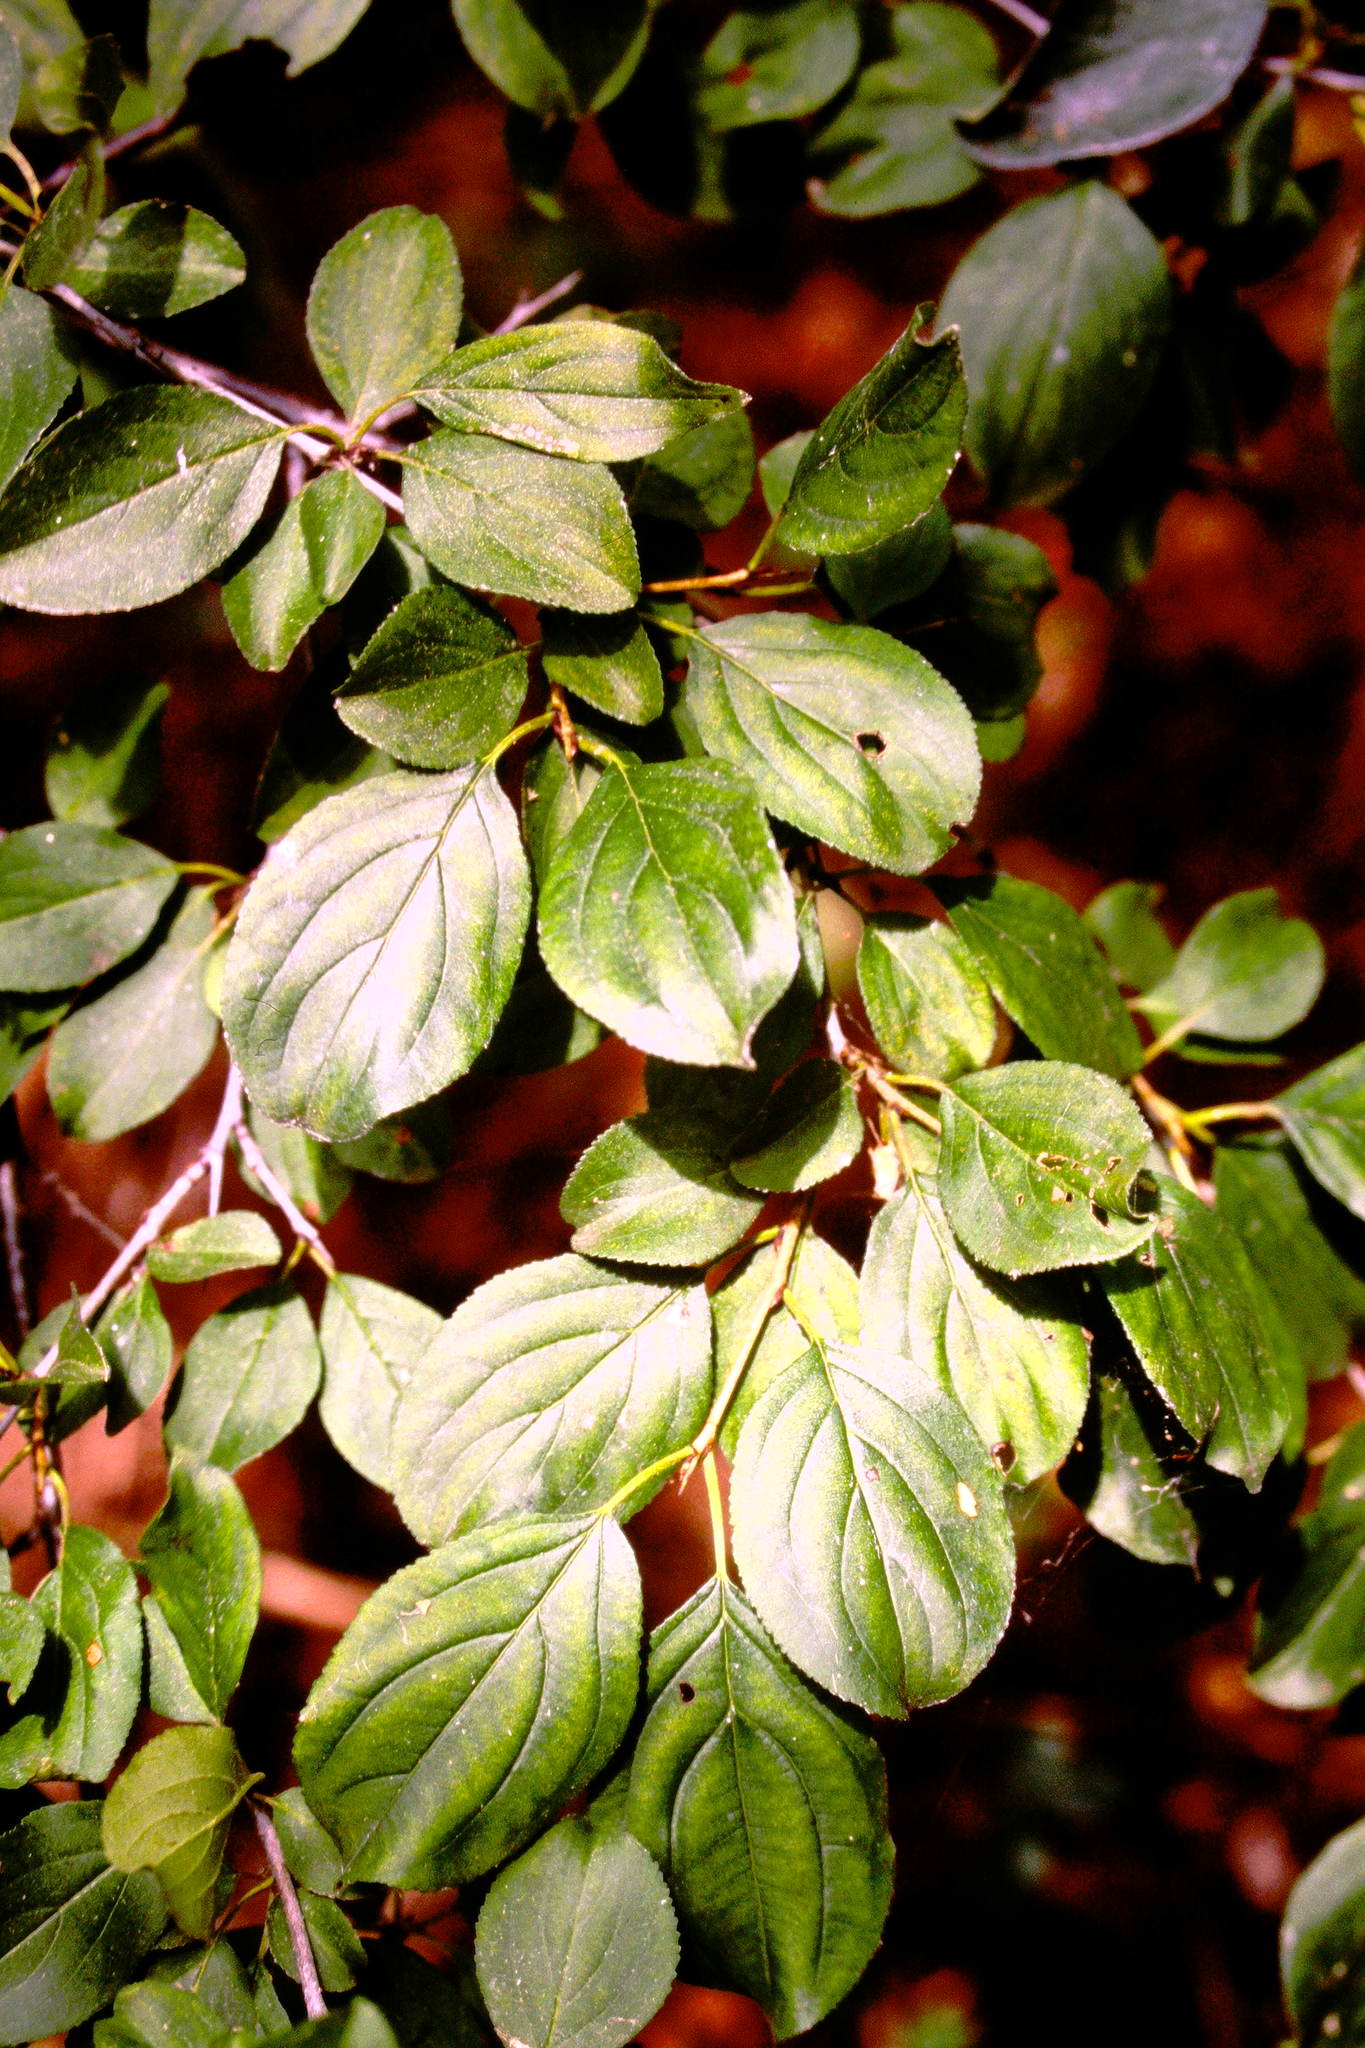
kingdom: Plantae
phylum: Tracheophyta
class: Magnoliopsida
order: Rosales
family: Rhamnaceae
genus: Rhamnus
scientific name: Rhamnus cathartica
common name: Common buckthorn
